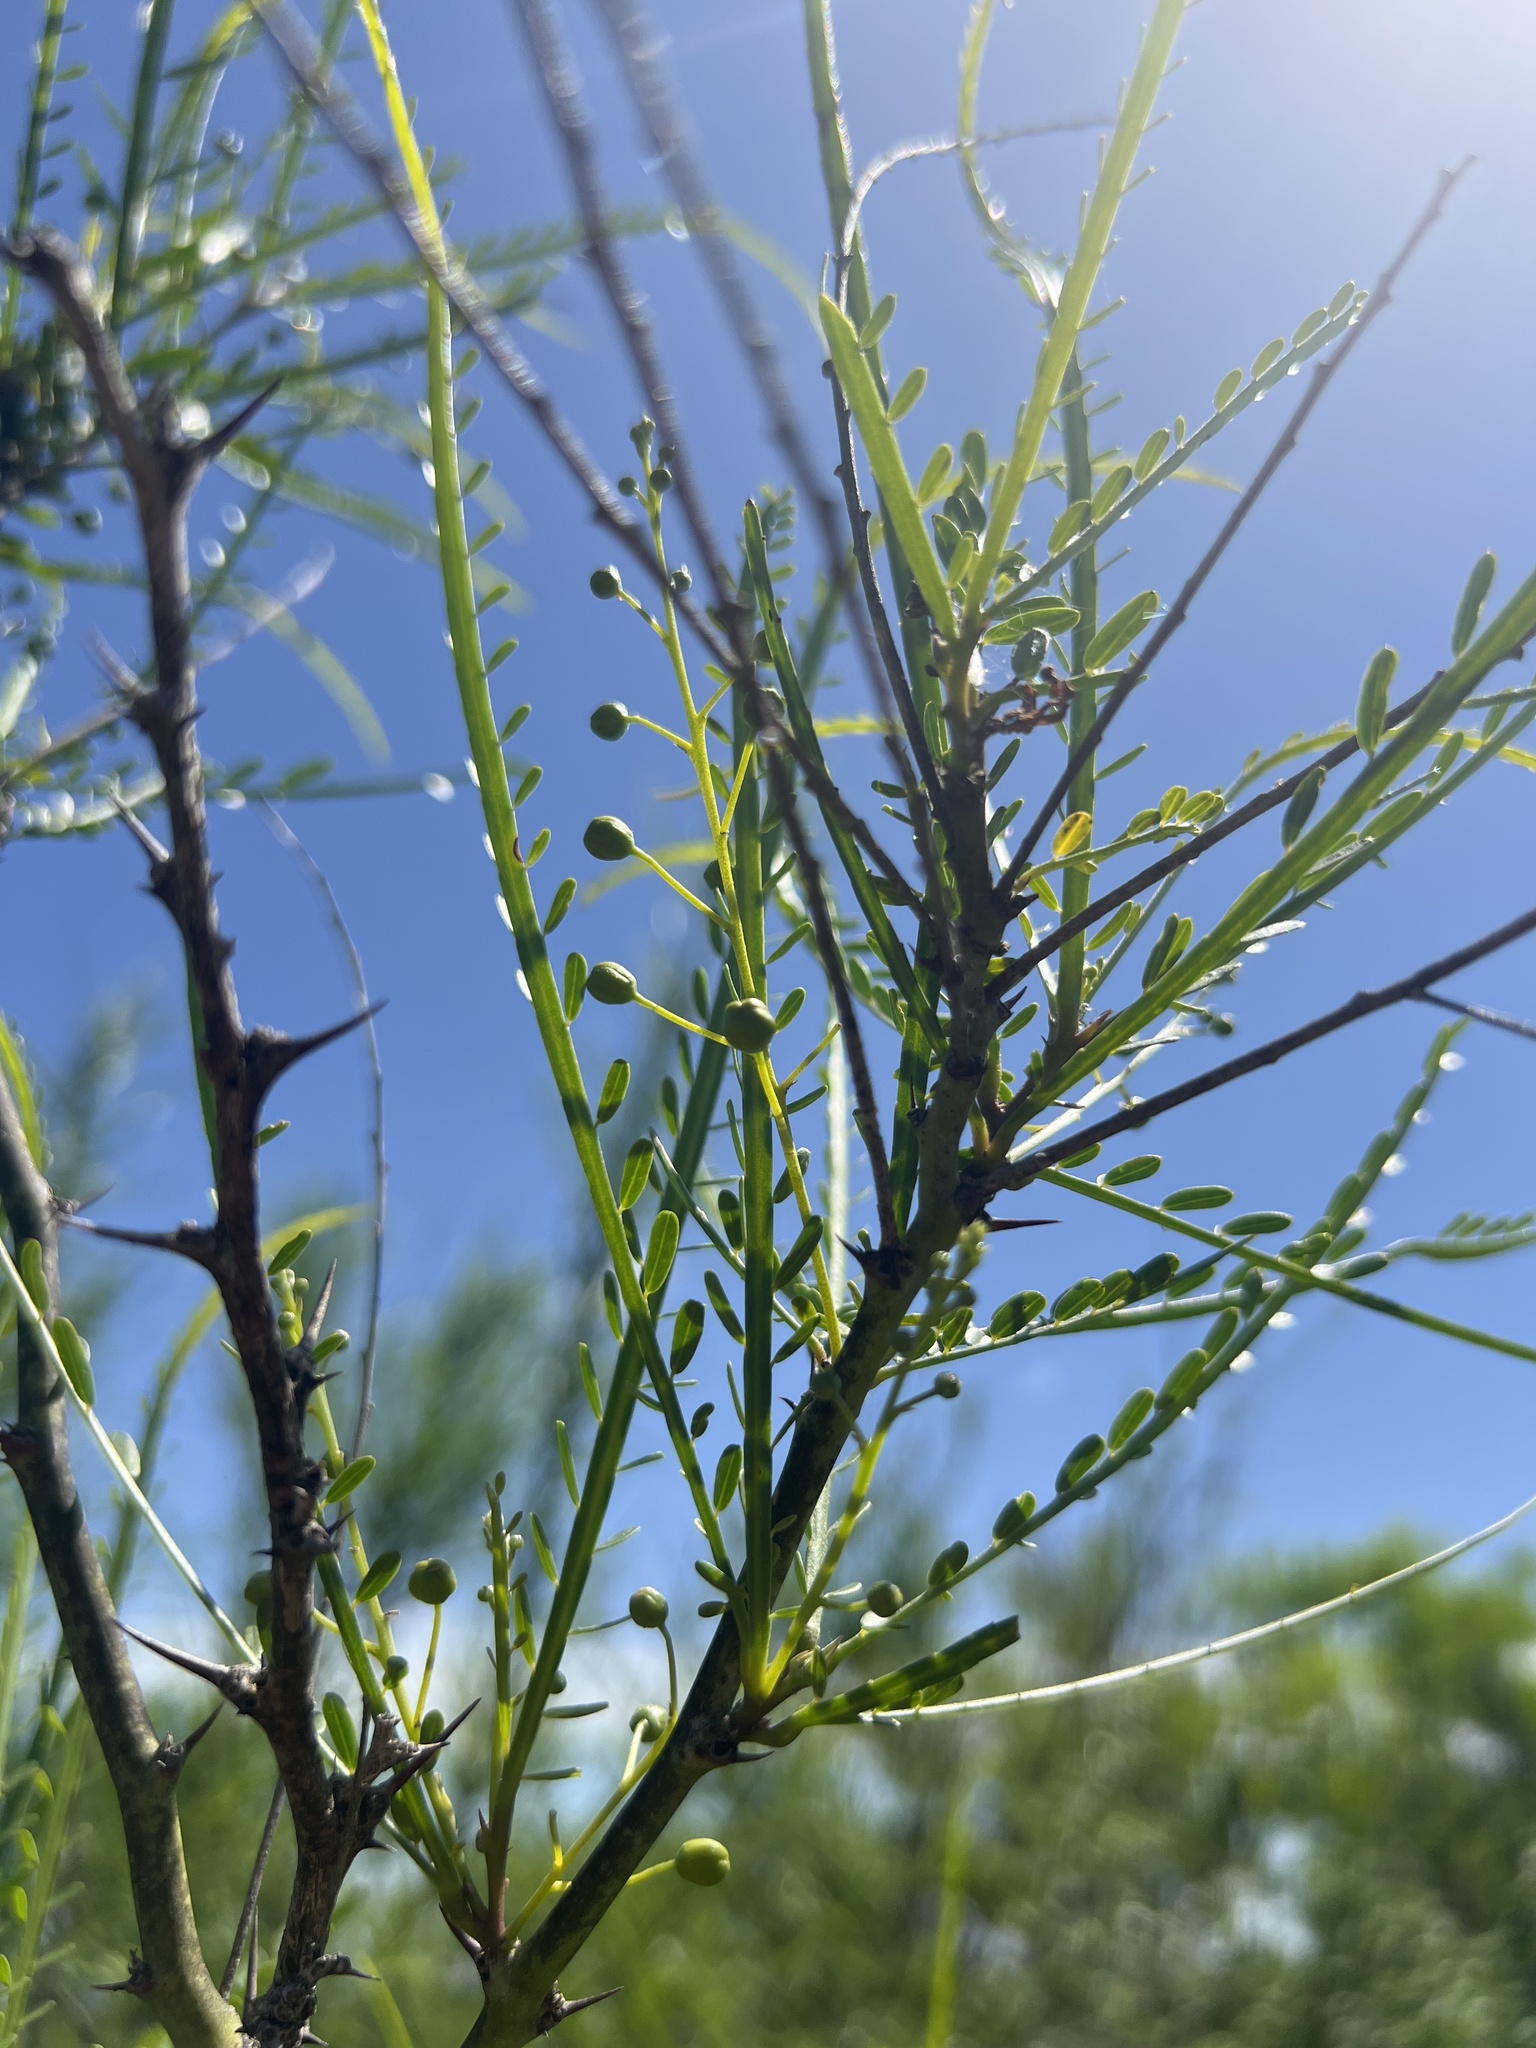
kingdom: Plantae
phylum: Tracheophyta
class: Magnoliopsida
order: Fabales
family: Fabaceae
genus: Parkinsonia
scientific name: Parkinsonia aculeata
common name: Jerusalem thorn
